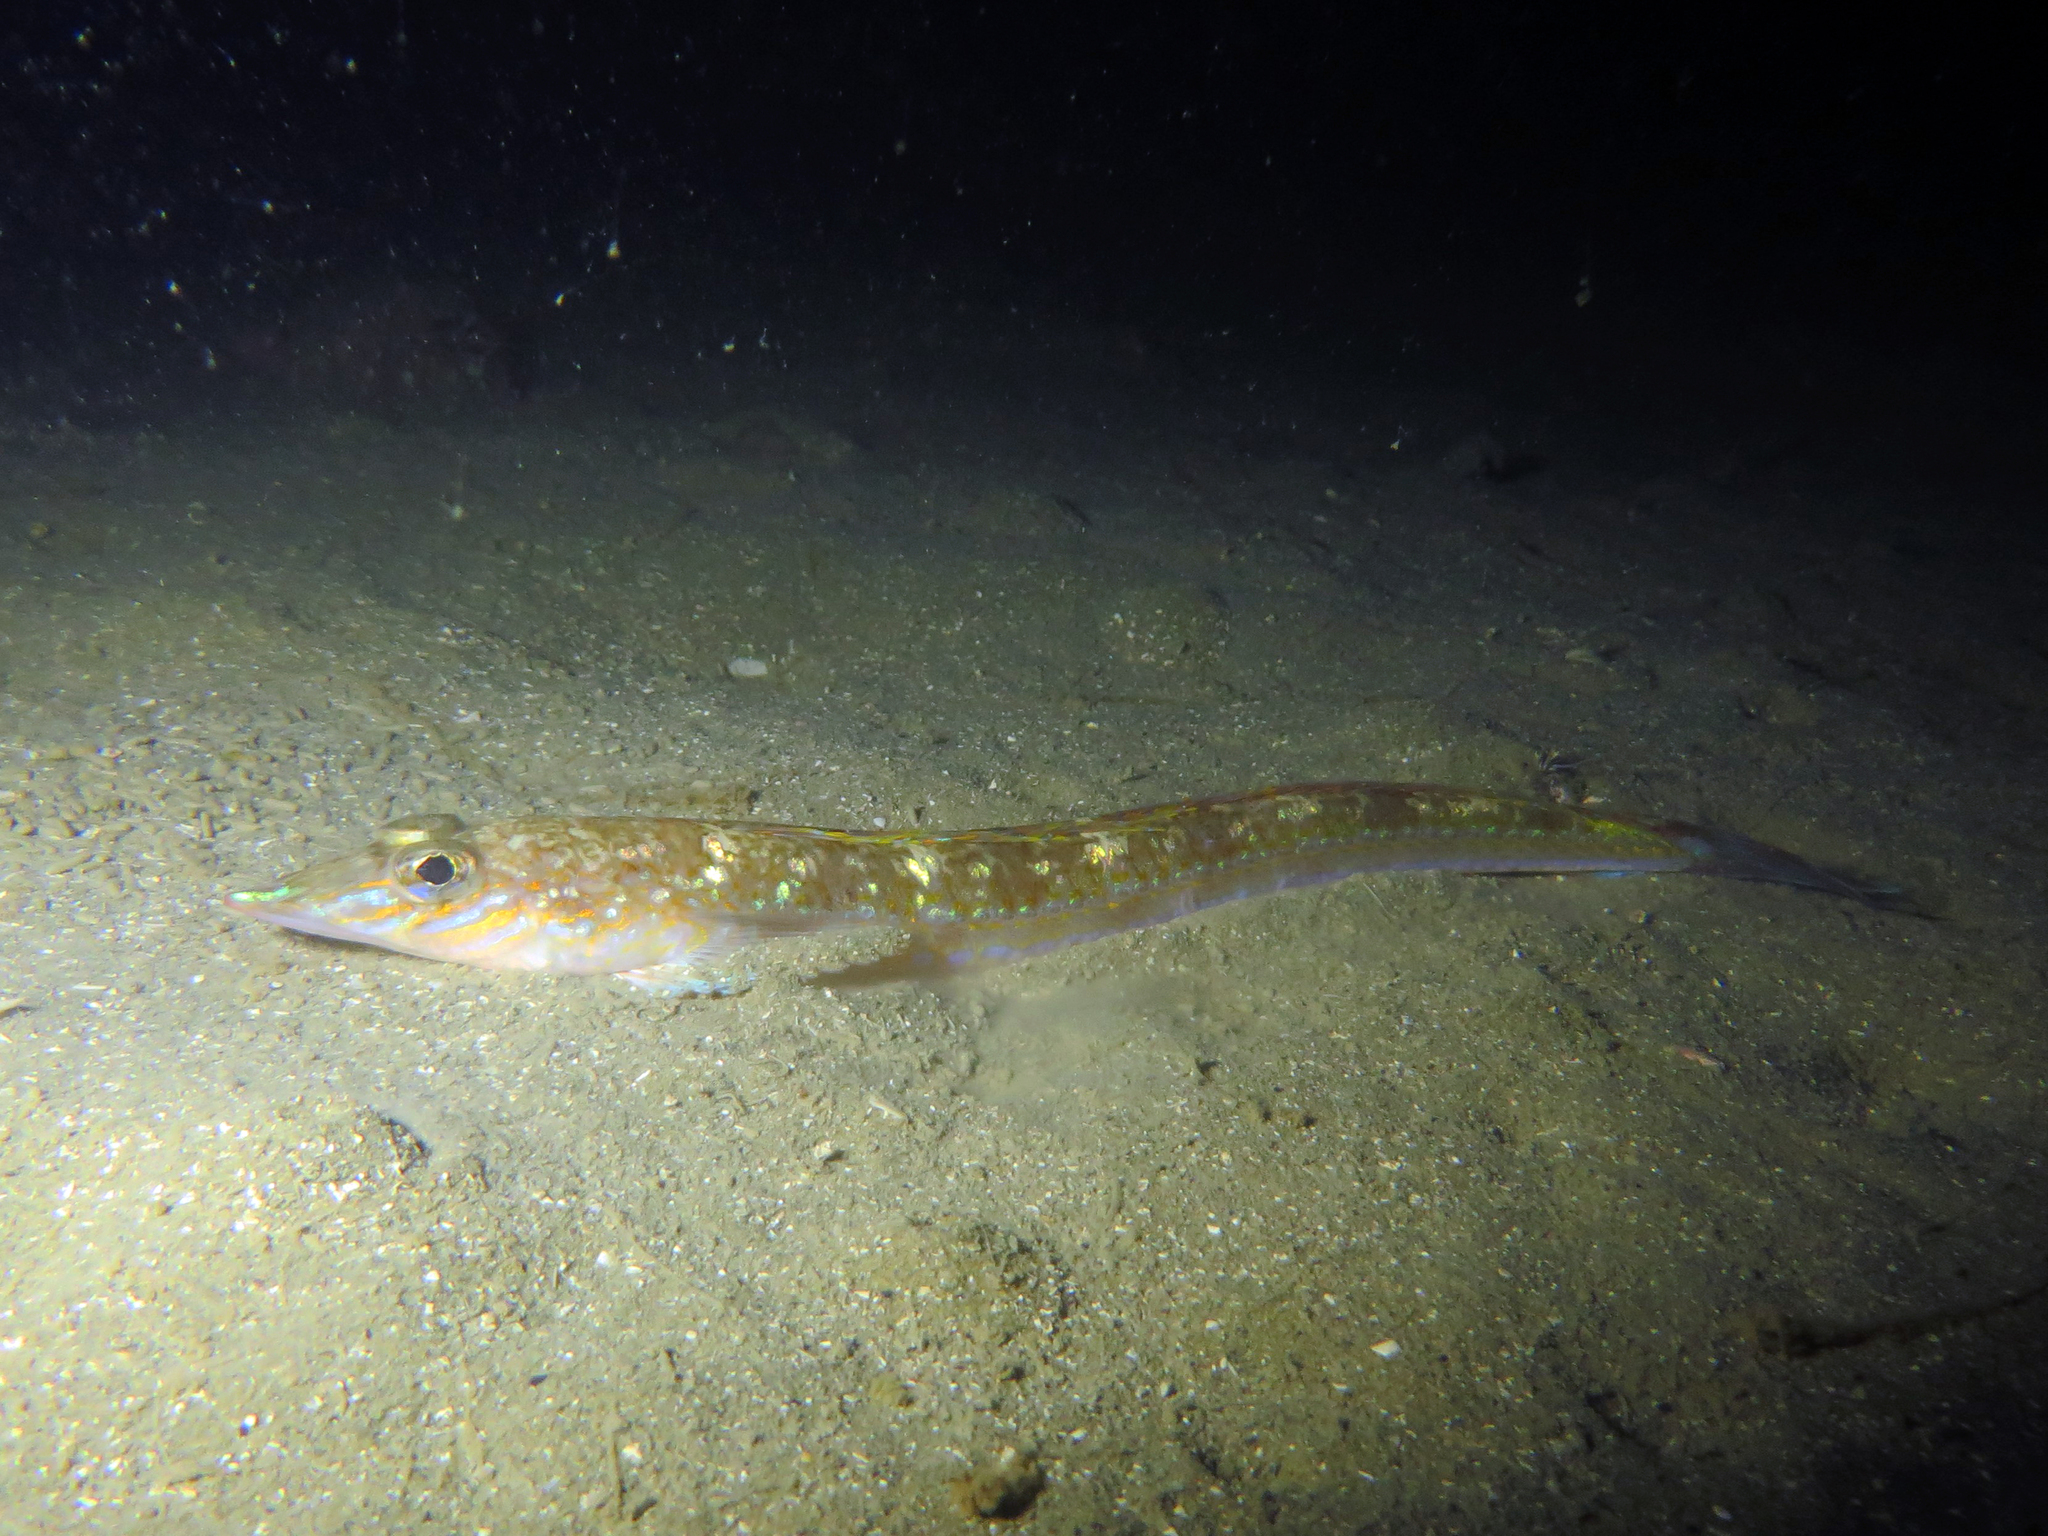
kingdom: Animalia
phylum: Chordata
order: Perciformes
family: Percophidae
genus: Hemerocoetes
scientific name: Hemerocoetes monopterygius
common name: Opalfish
